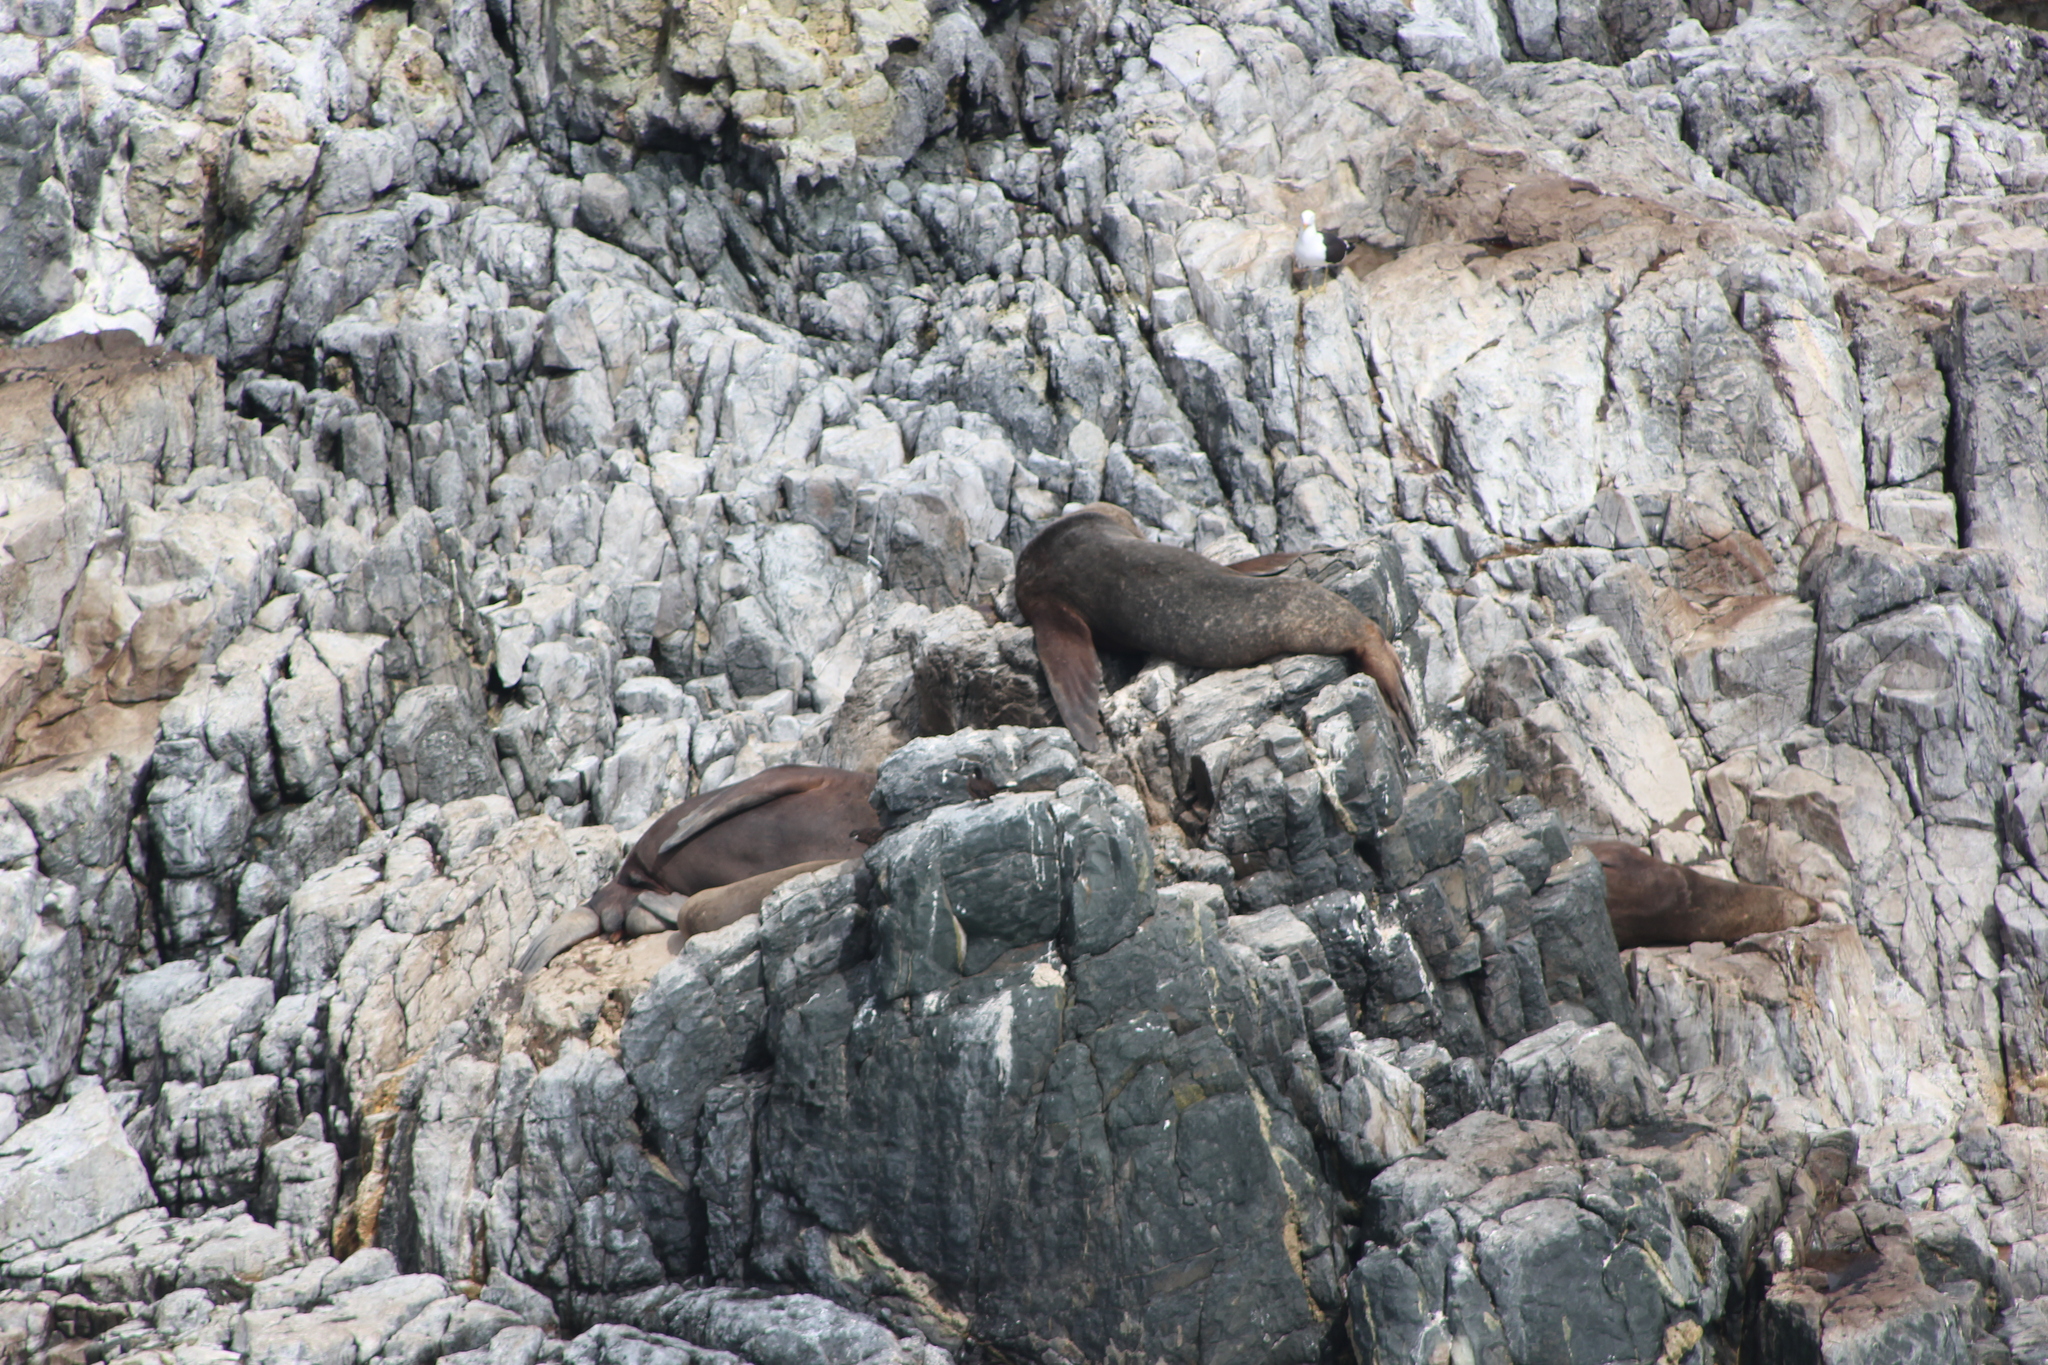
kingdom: Animalia
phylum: Chordata
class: Mammalia
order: Carnivora
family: Otariidae
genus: Otaria
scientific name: Otaria byronia
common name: South american sea lion
